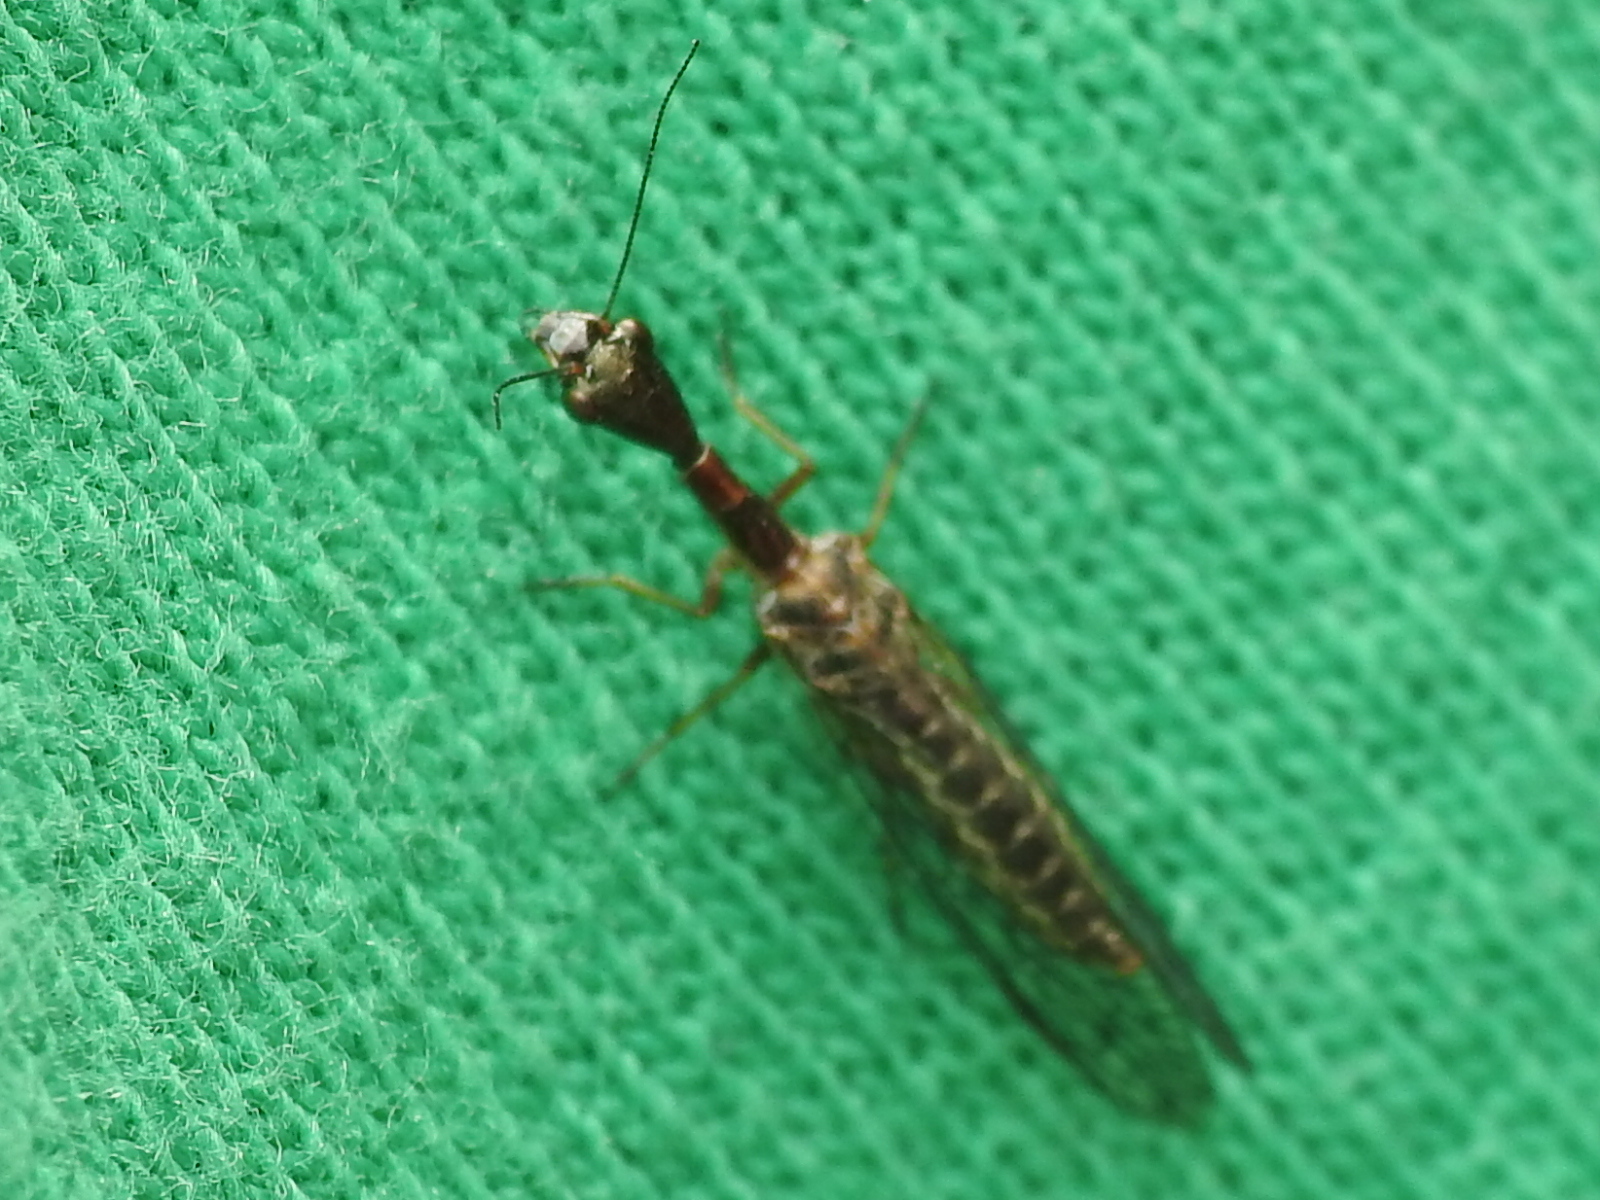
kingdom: Animalia
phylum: Arthropoda
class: Insecta
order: Raphidioptera
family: Raphidiidae
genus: Agulla
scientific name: Agulla bicolor
